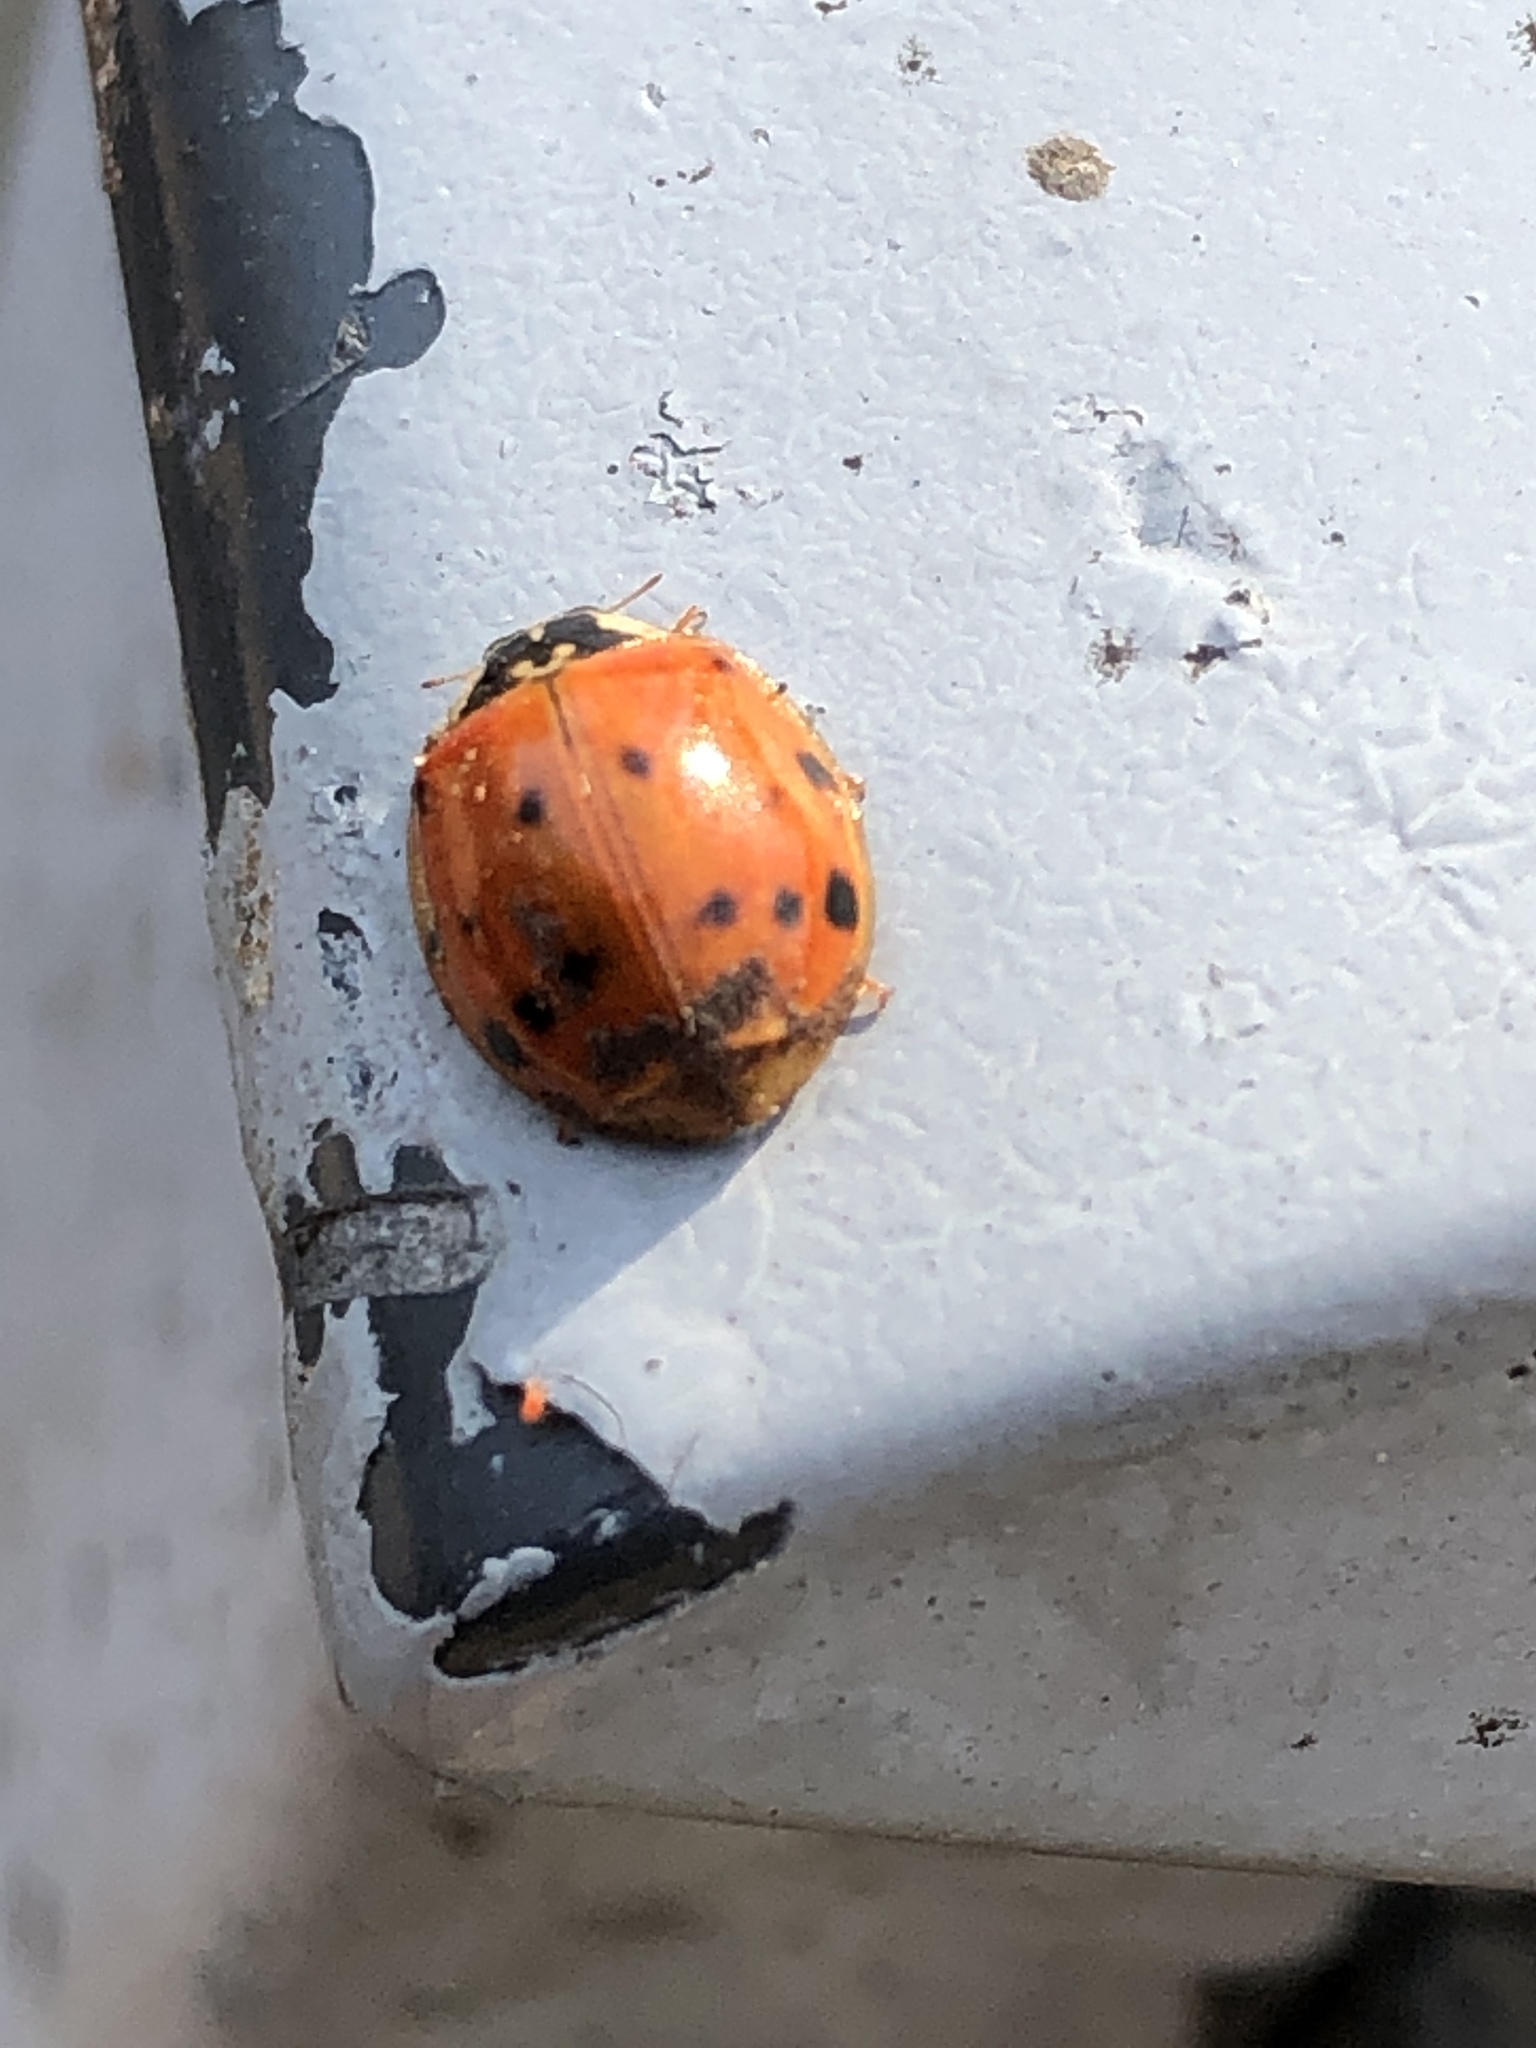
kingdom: Animalia
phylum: Arthropoda
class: Insecta
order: Coleoptera
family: Coccinellidae
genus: Harmonia
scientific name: Harmonia axyridis
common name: Harlequin ladybird
